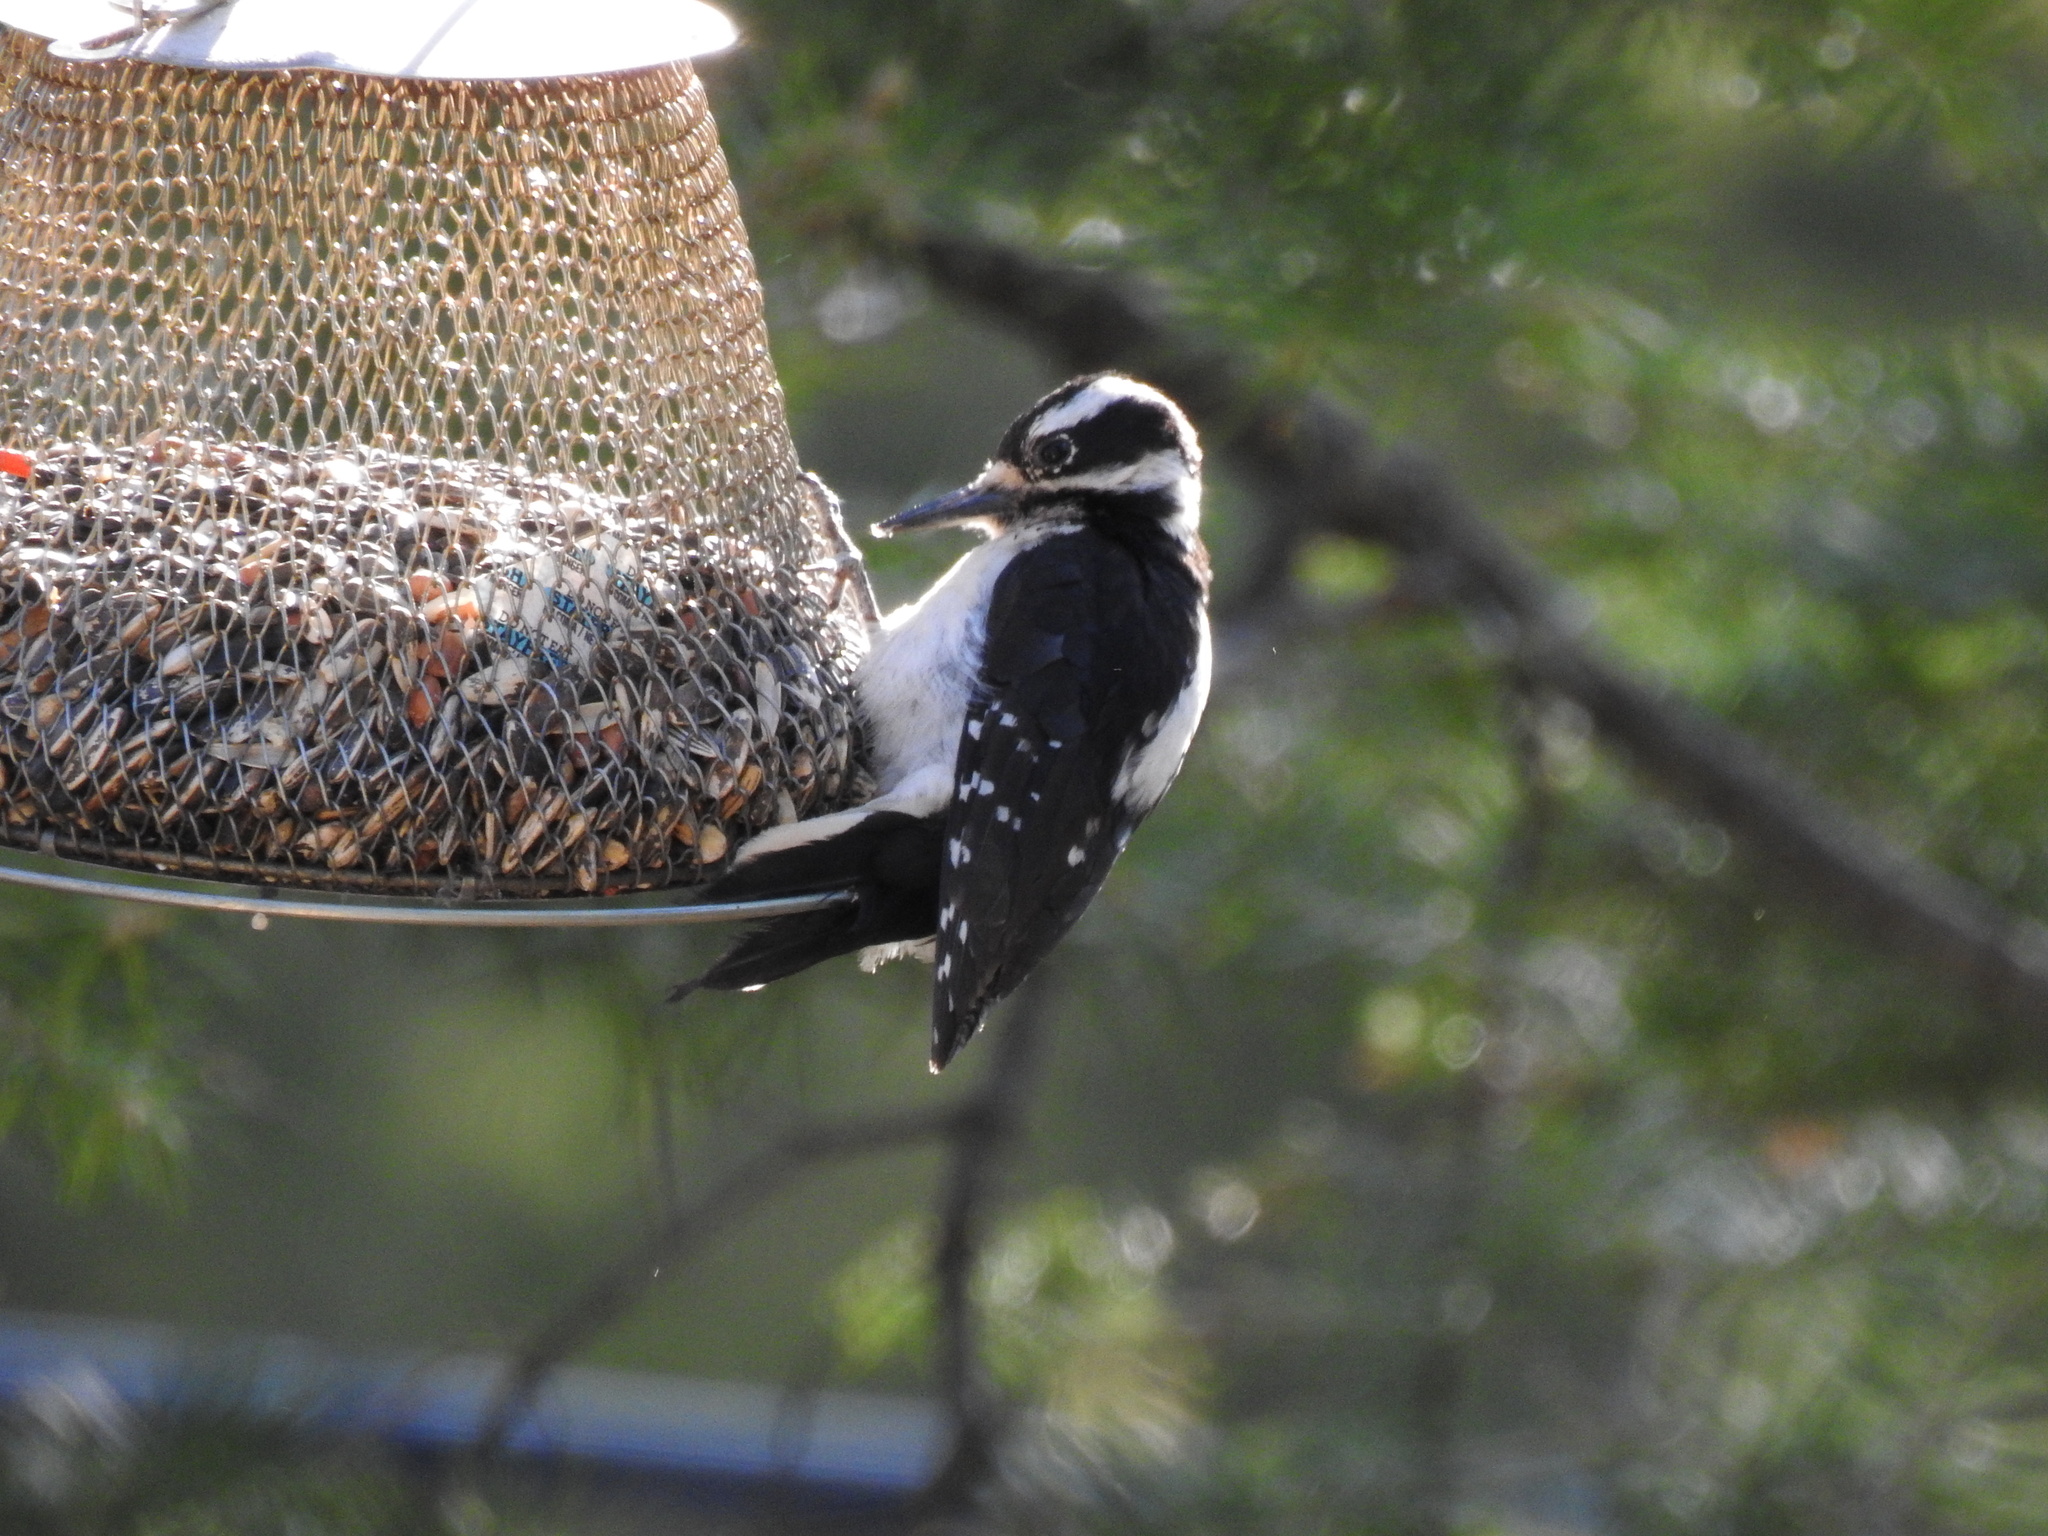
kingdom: Animalia
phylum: Chordata
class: Aves
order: Piciformes
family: Picidae
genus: Leuconotopicus
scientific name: Leuconotopicus villosus
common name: Hairy woodpecker
